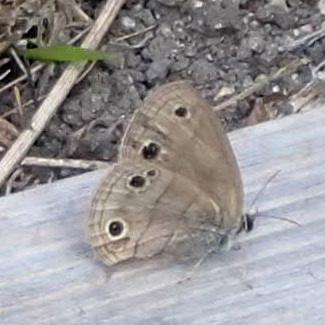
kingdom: Animalia
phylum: Arthropoda
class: Insecta
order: Lepidoptera
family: Nymphalidae
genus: Euptychia
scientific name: Euptychia cymela
